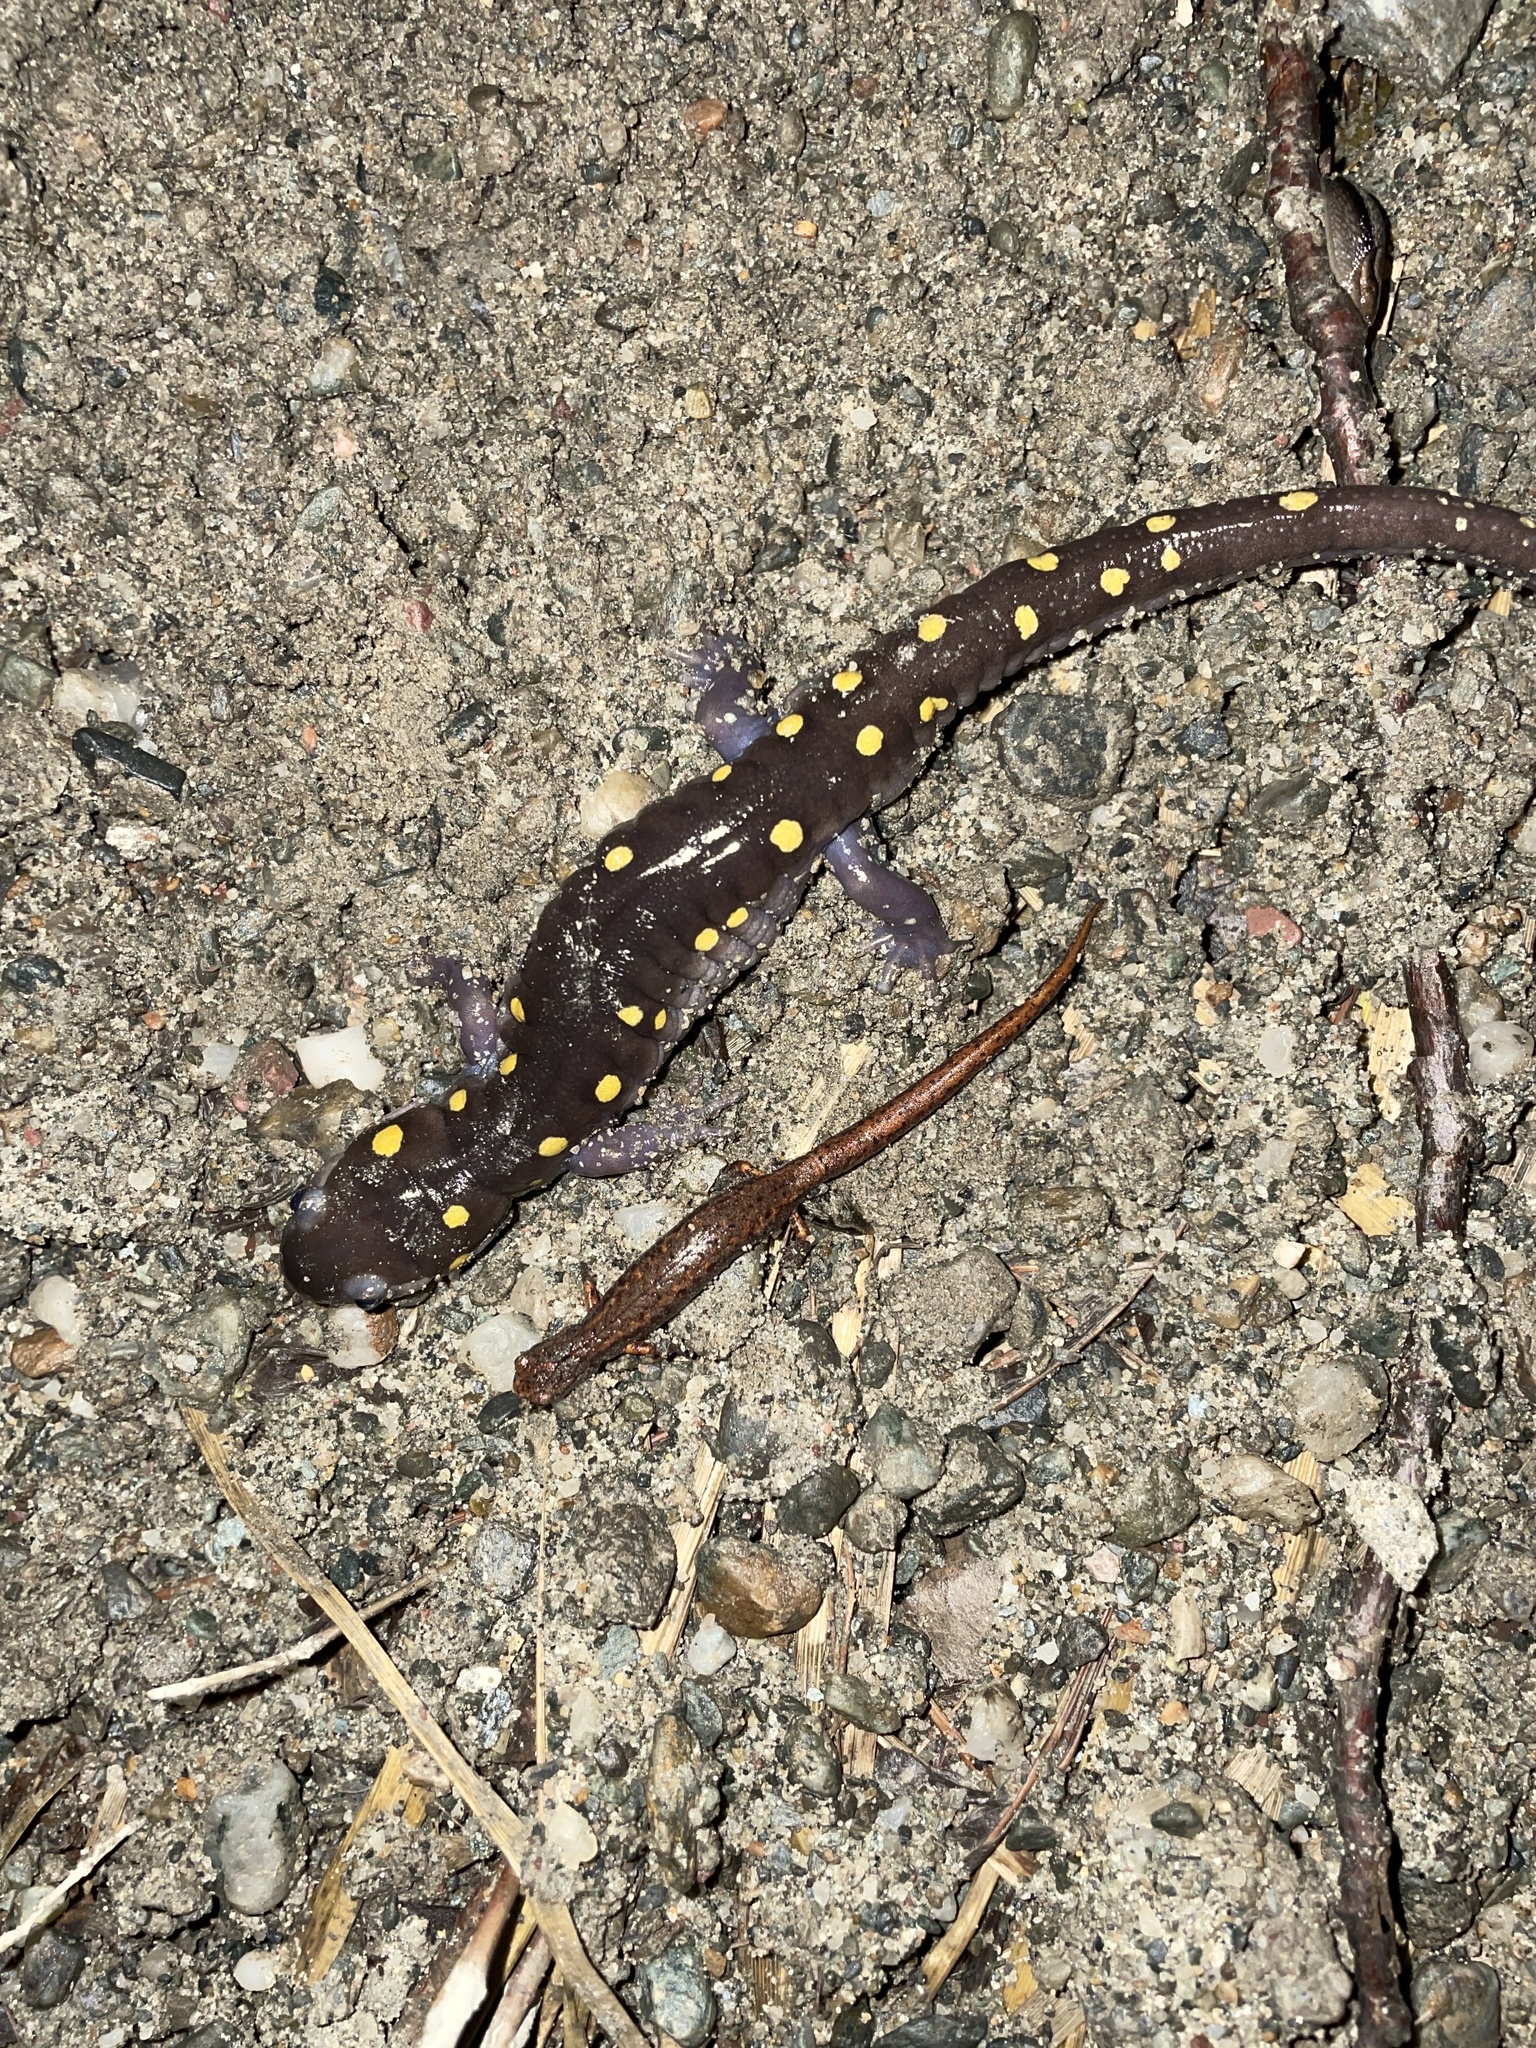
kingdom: Animalia
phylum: Chordata
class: Amphibia
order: Caudata
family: Plethodontidae
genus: Hemidactylium
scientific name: Hemidactylium scutatum
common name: Four-toed salamander
